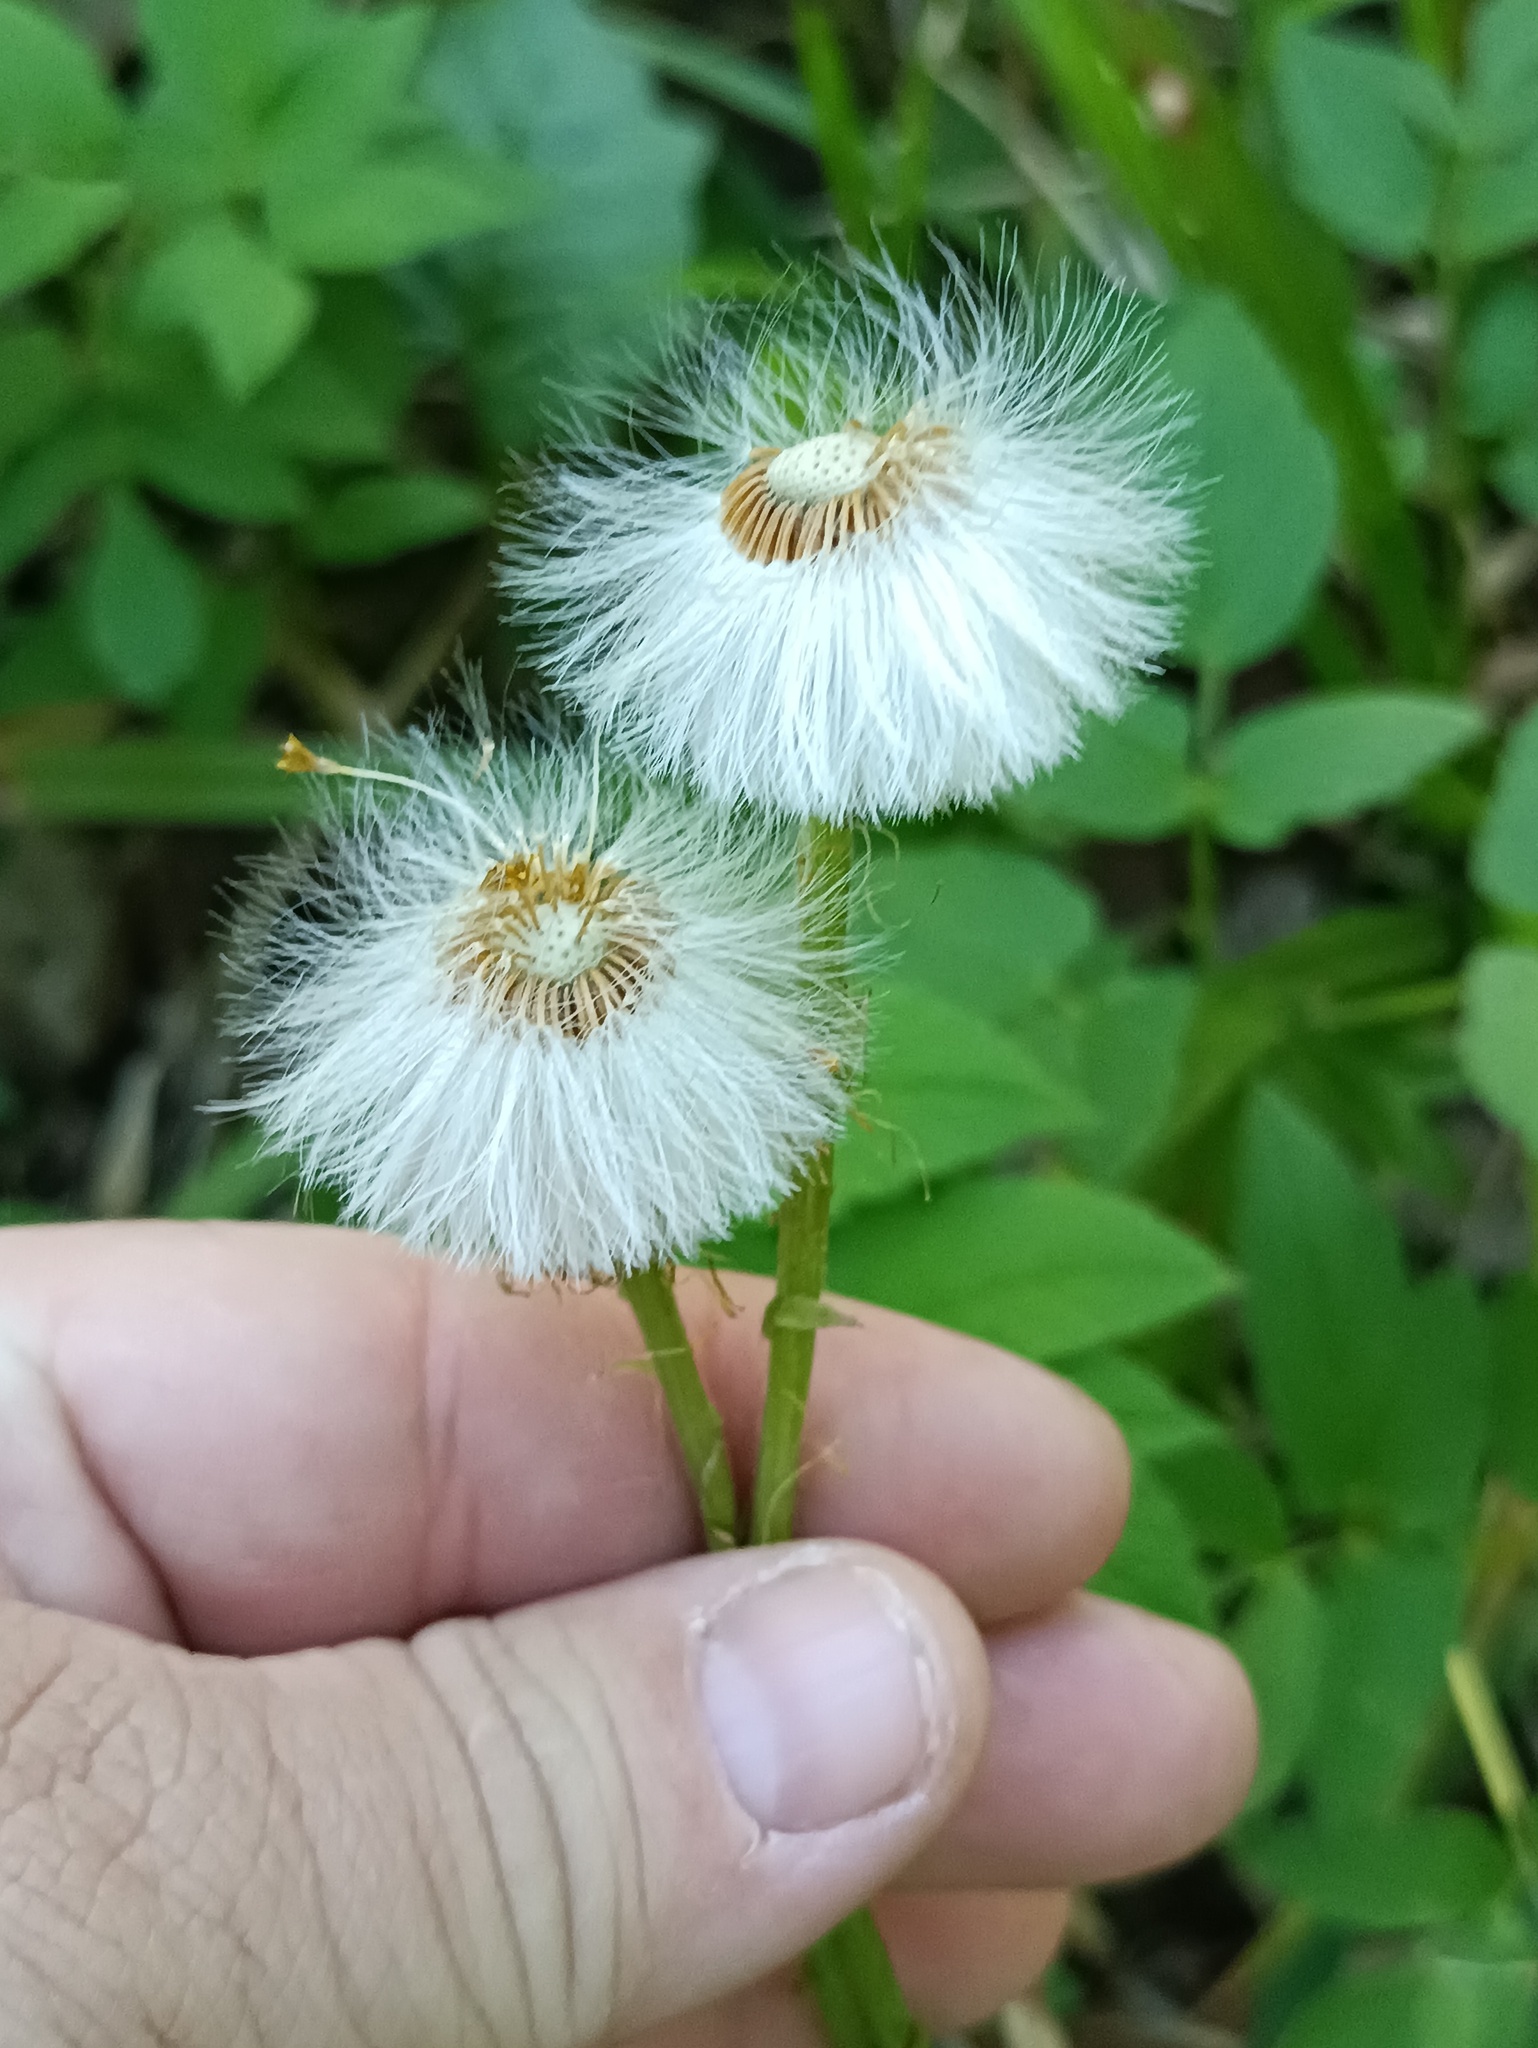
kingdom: Plantae
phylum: Tracheophyta
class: Magnoliopsida
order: Asterales
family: Asteraceae
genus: Tussilago
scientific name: Tussilago farfara
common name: Coltsfoot
